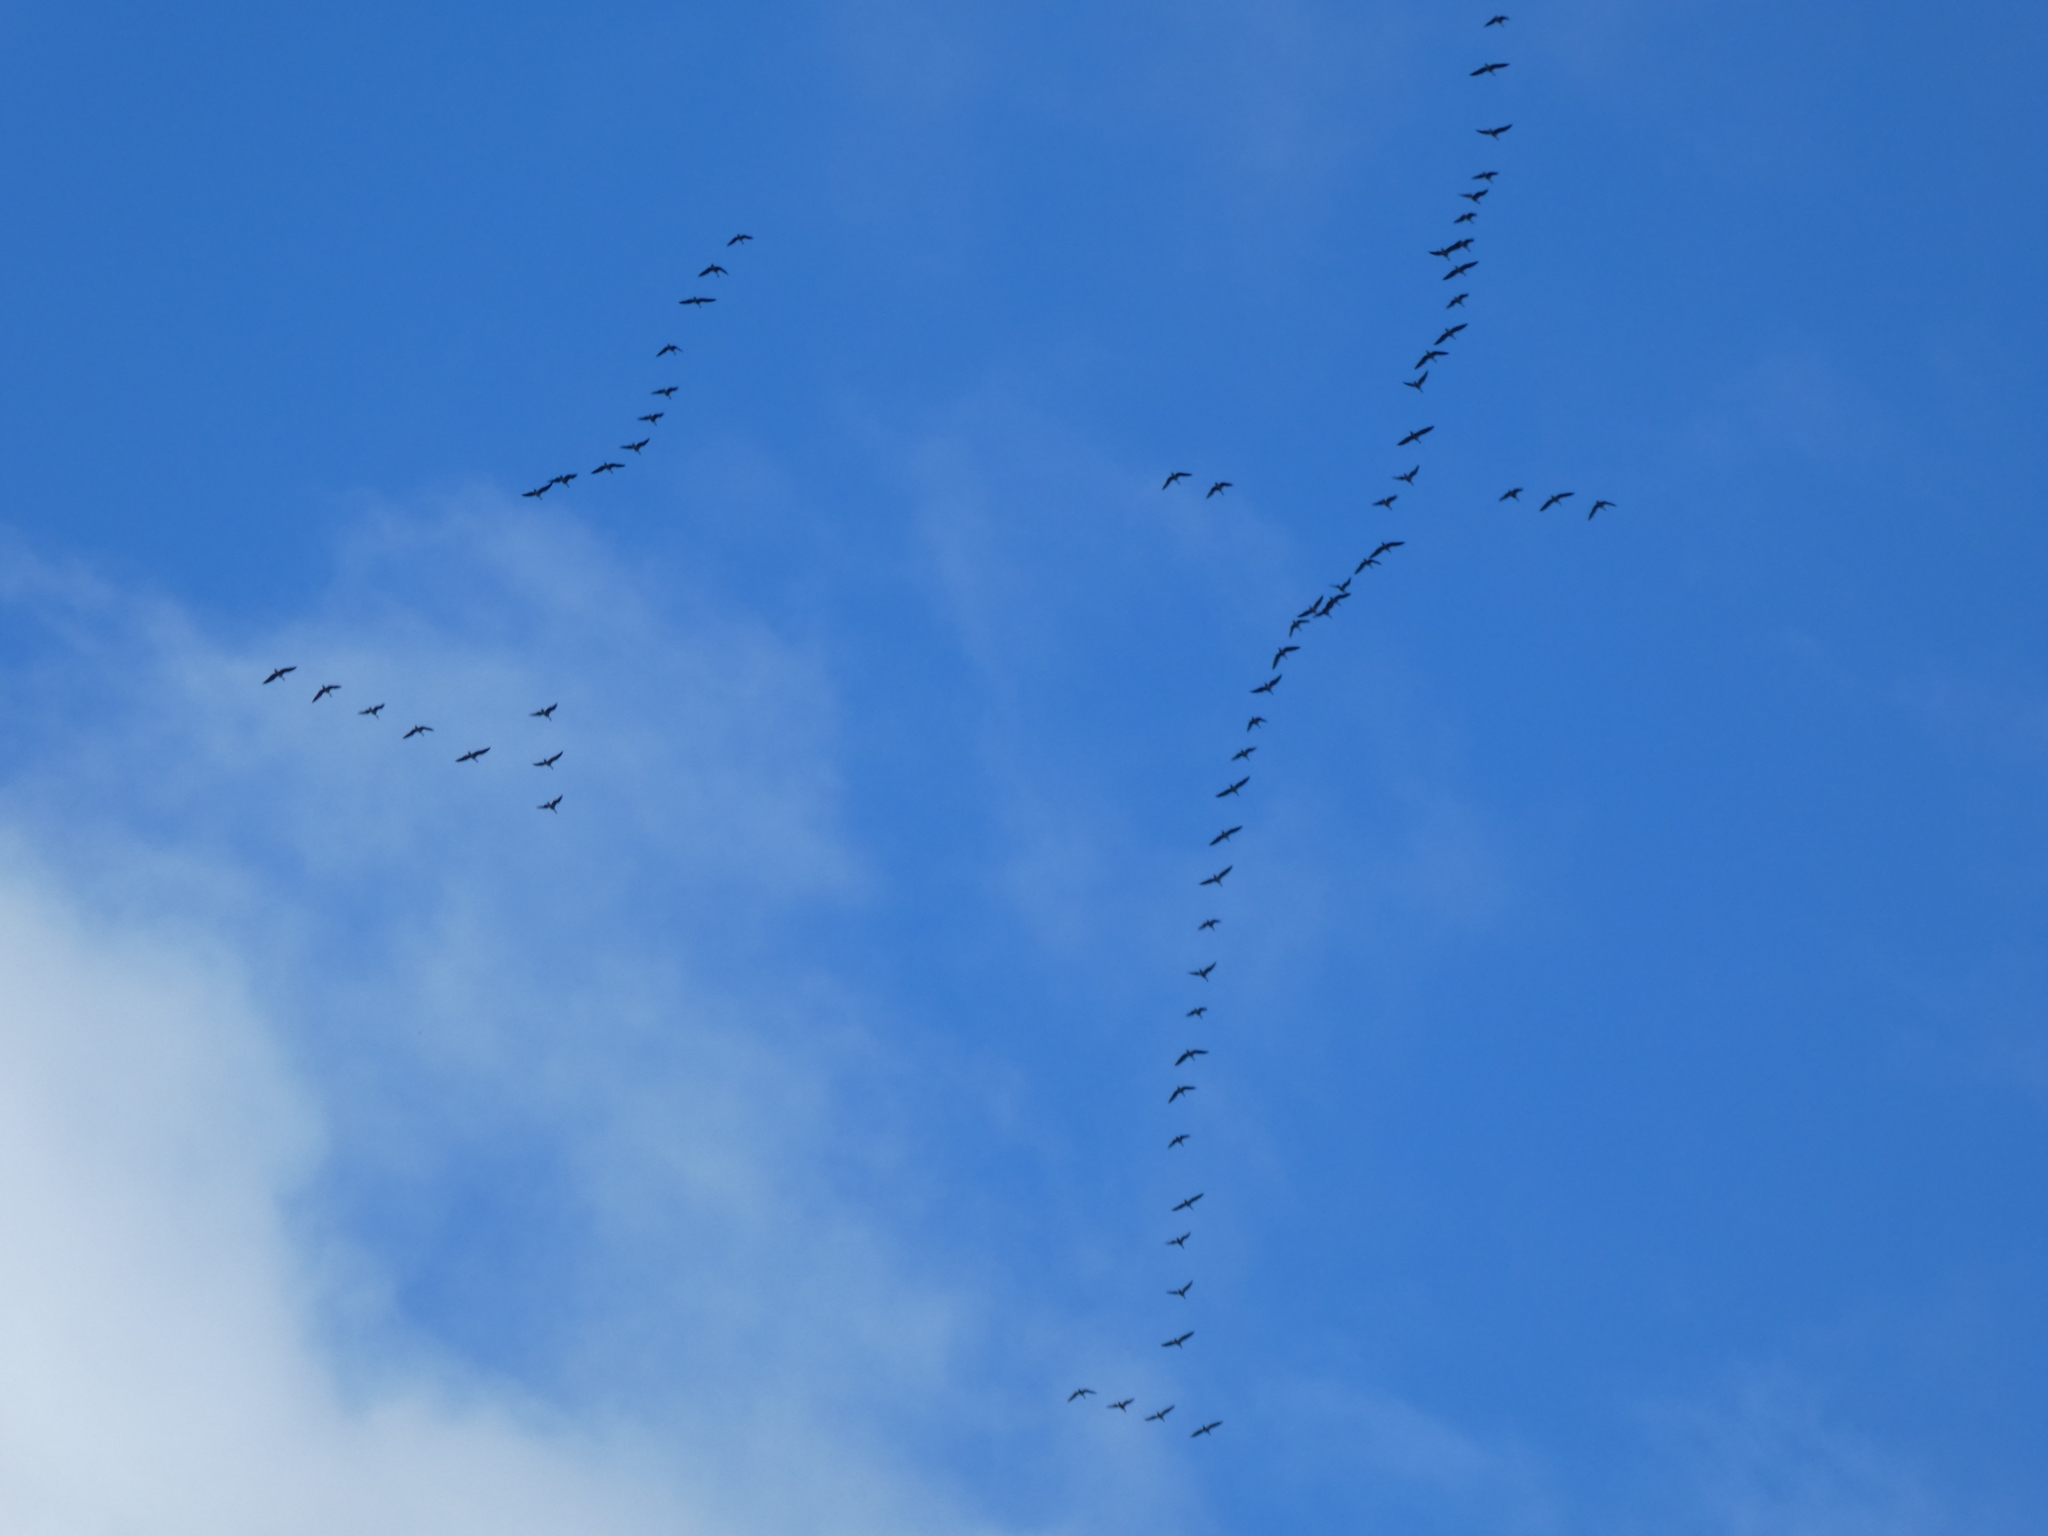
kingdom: Animalia
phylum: Chordata
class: Aves
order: Anseriformes
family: Anatidae
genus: Anser
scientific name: Anser brachyrhynchus
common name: Pink-footed goose
